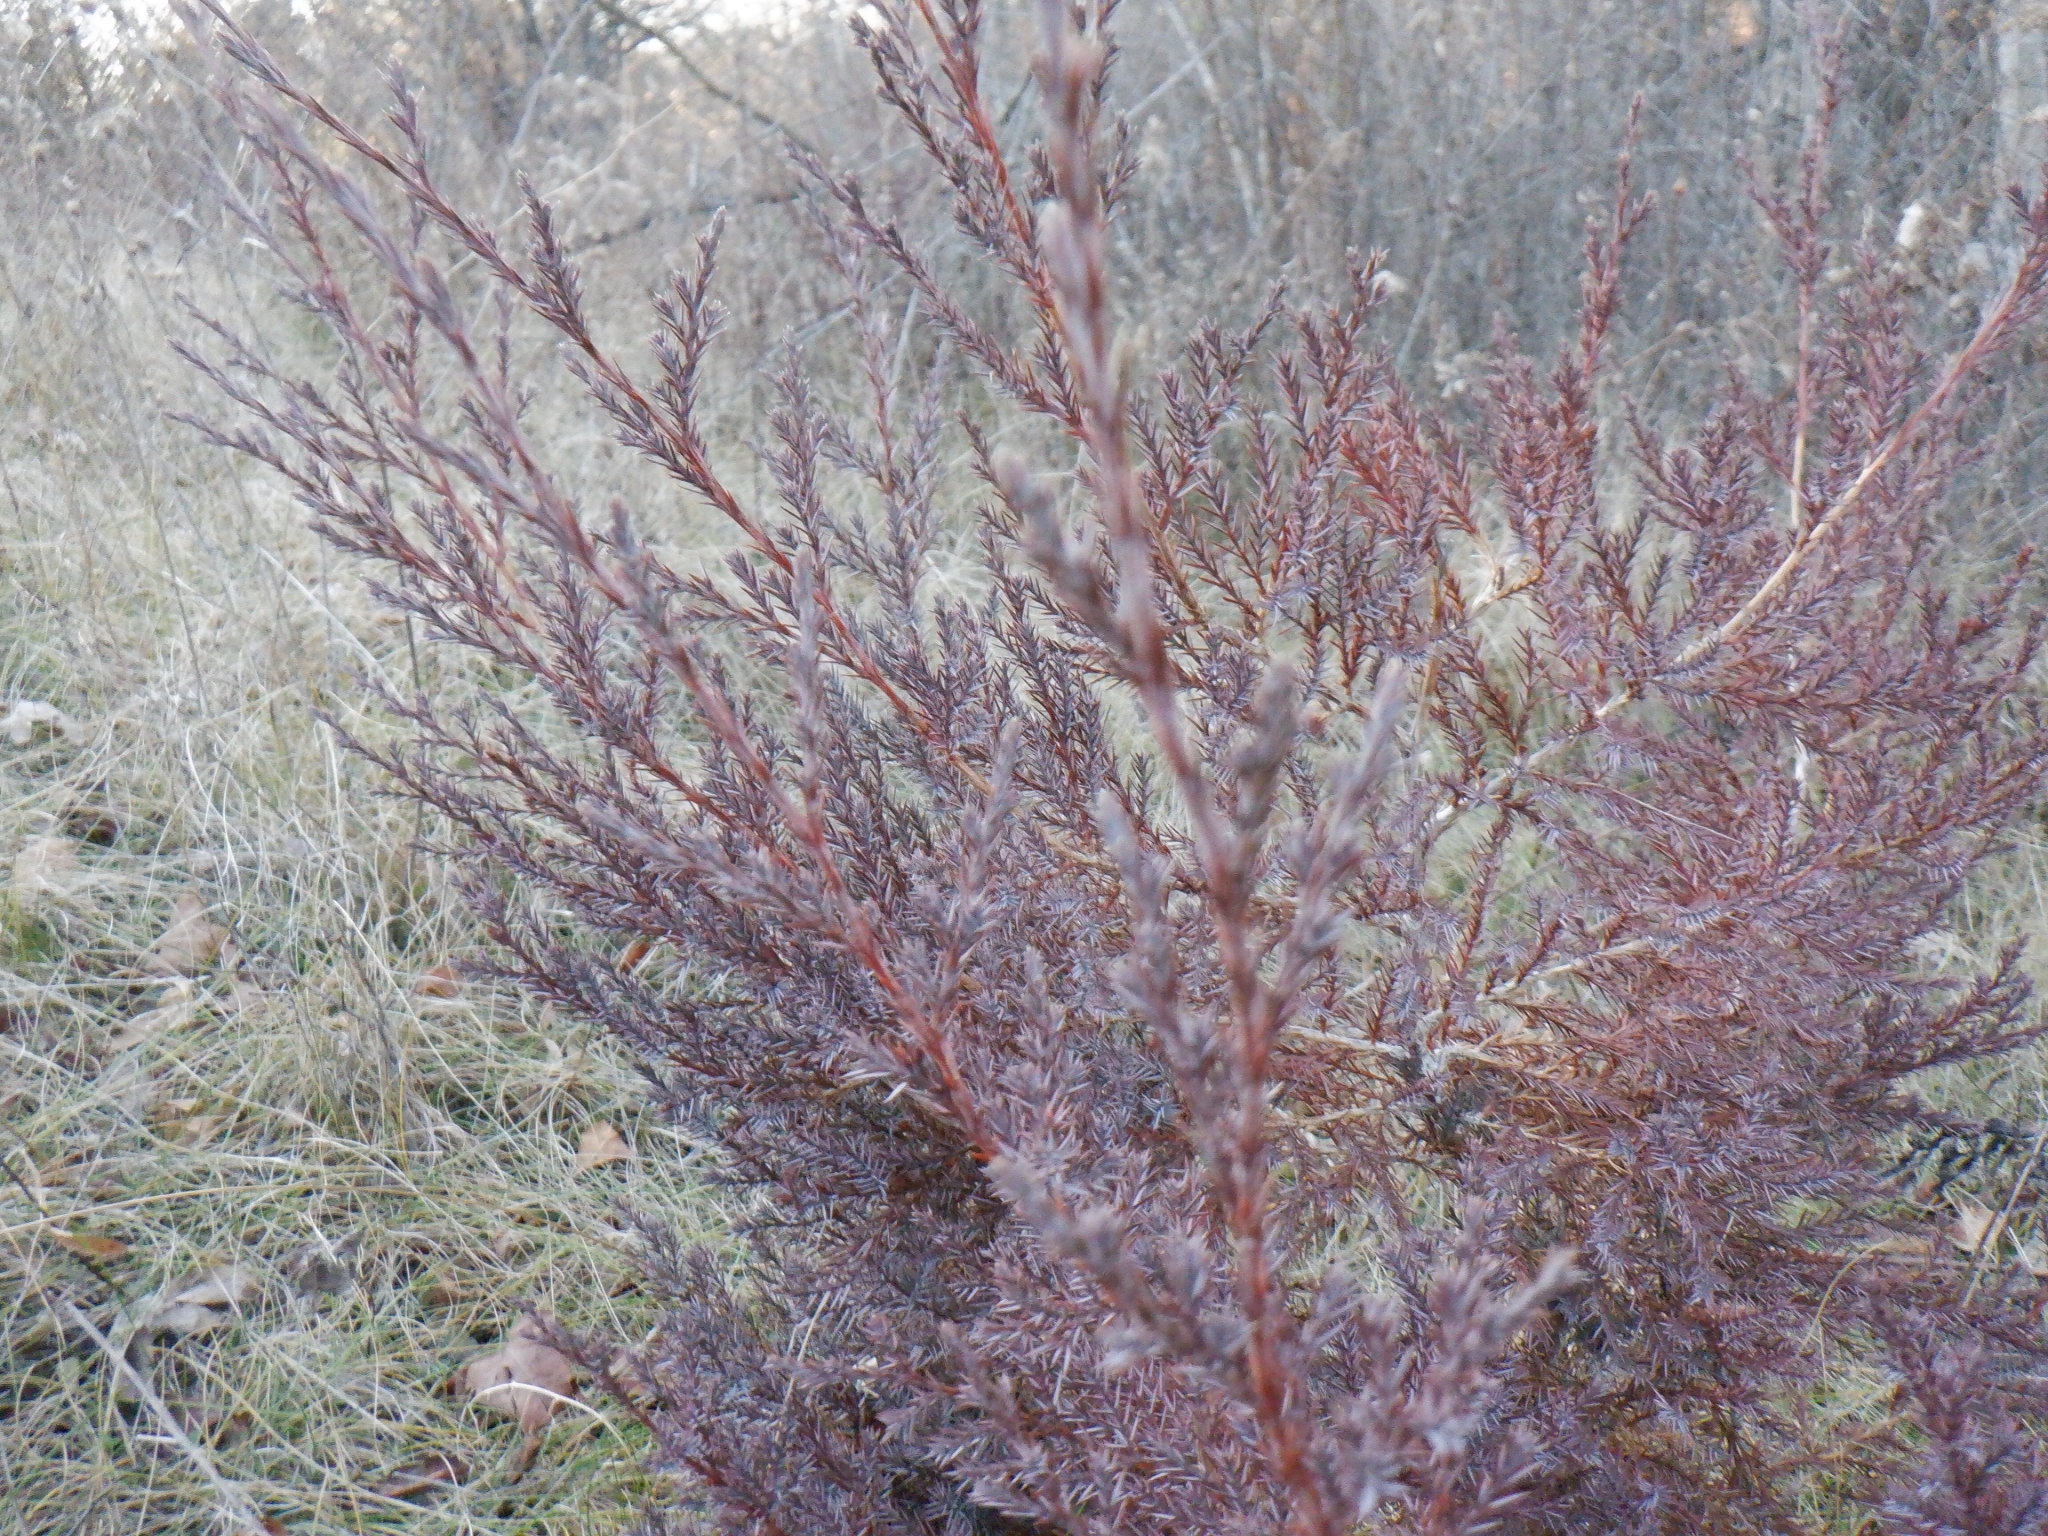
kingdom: Plantae
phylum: Tracheophyta
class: Pinopsida
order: Pinales
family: Cupressaceae
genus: Juniperus
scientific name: Juniperus virginiana
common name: Red juniper
